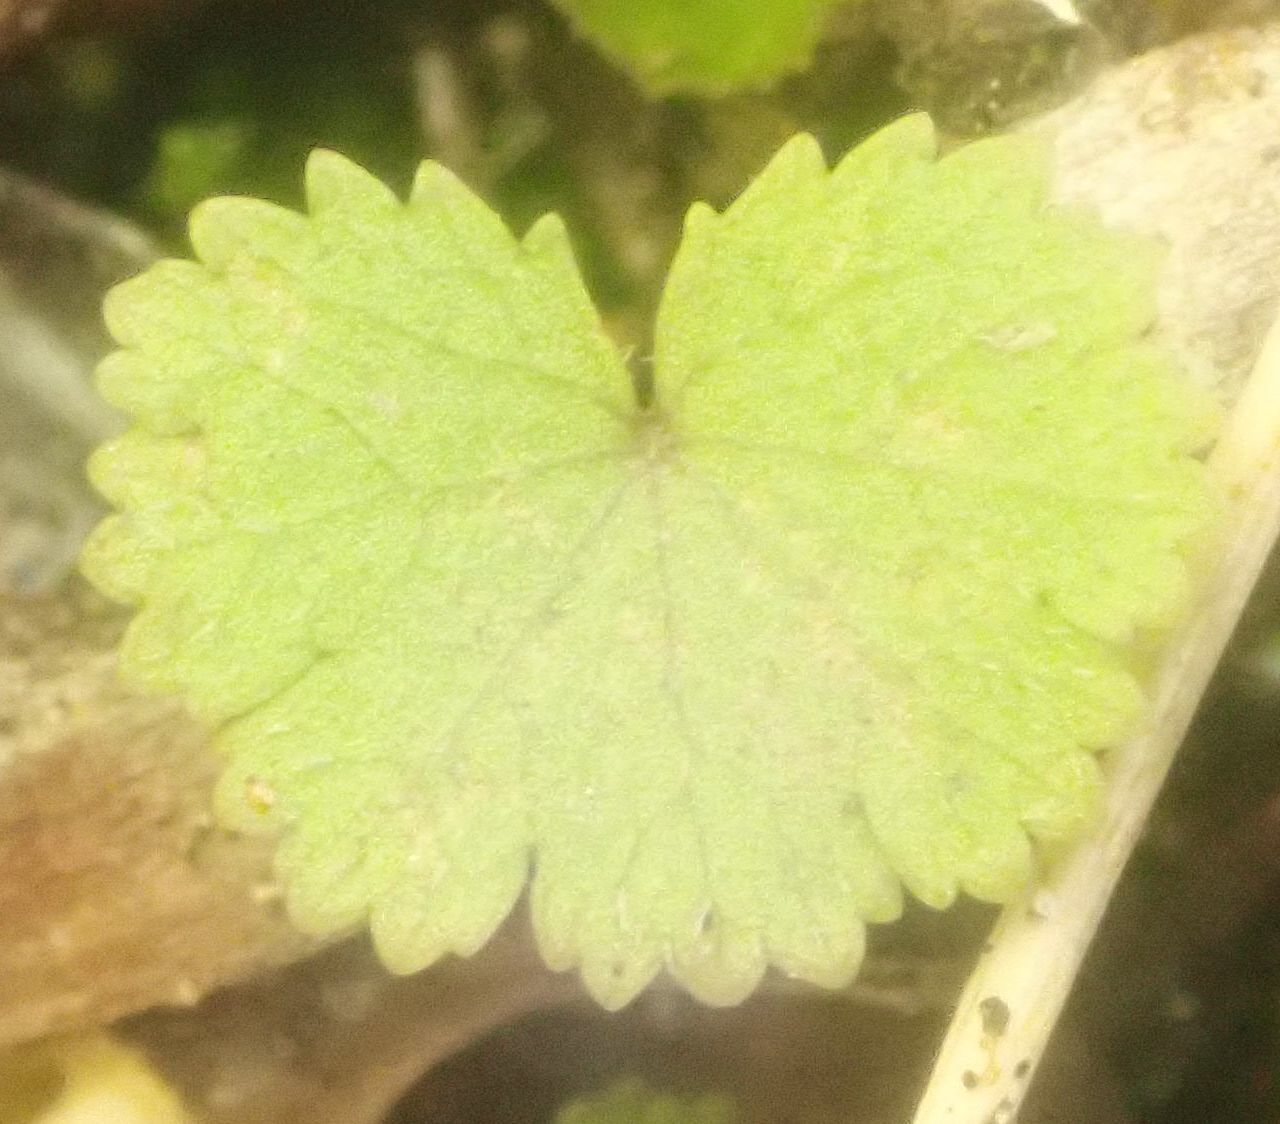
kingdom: Plantae
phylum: Tracheophyta
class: Magnoliopsida
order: Apiales
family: Araliaceae
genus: Hydrocotyle
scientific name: Hydrocotyle moschata
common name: Hairy pennywort
